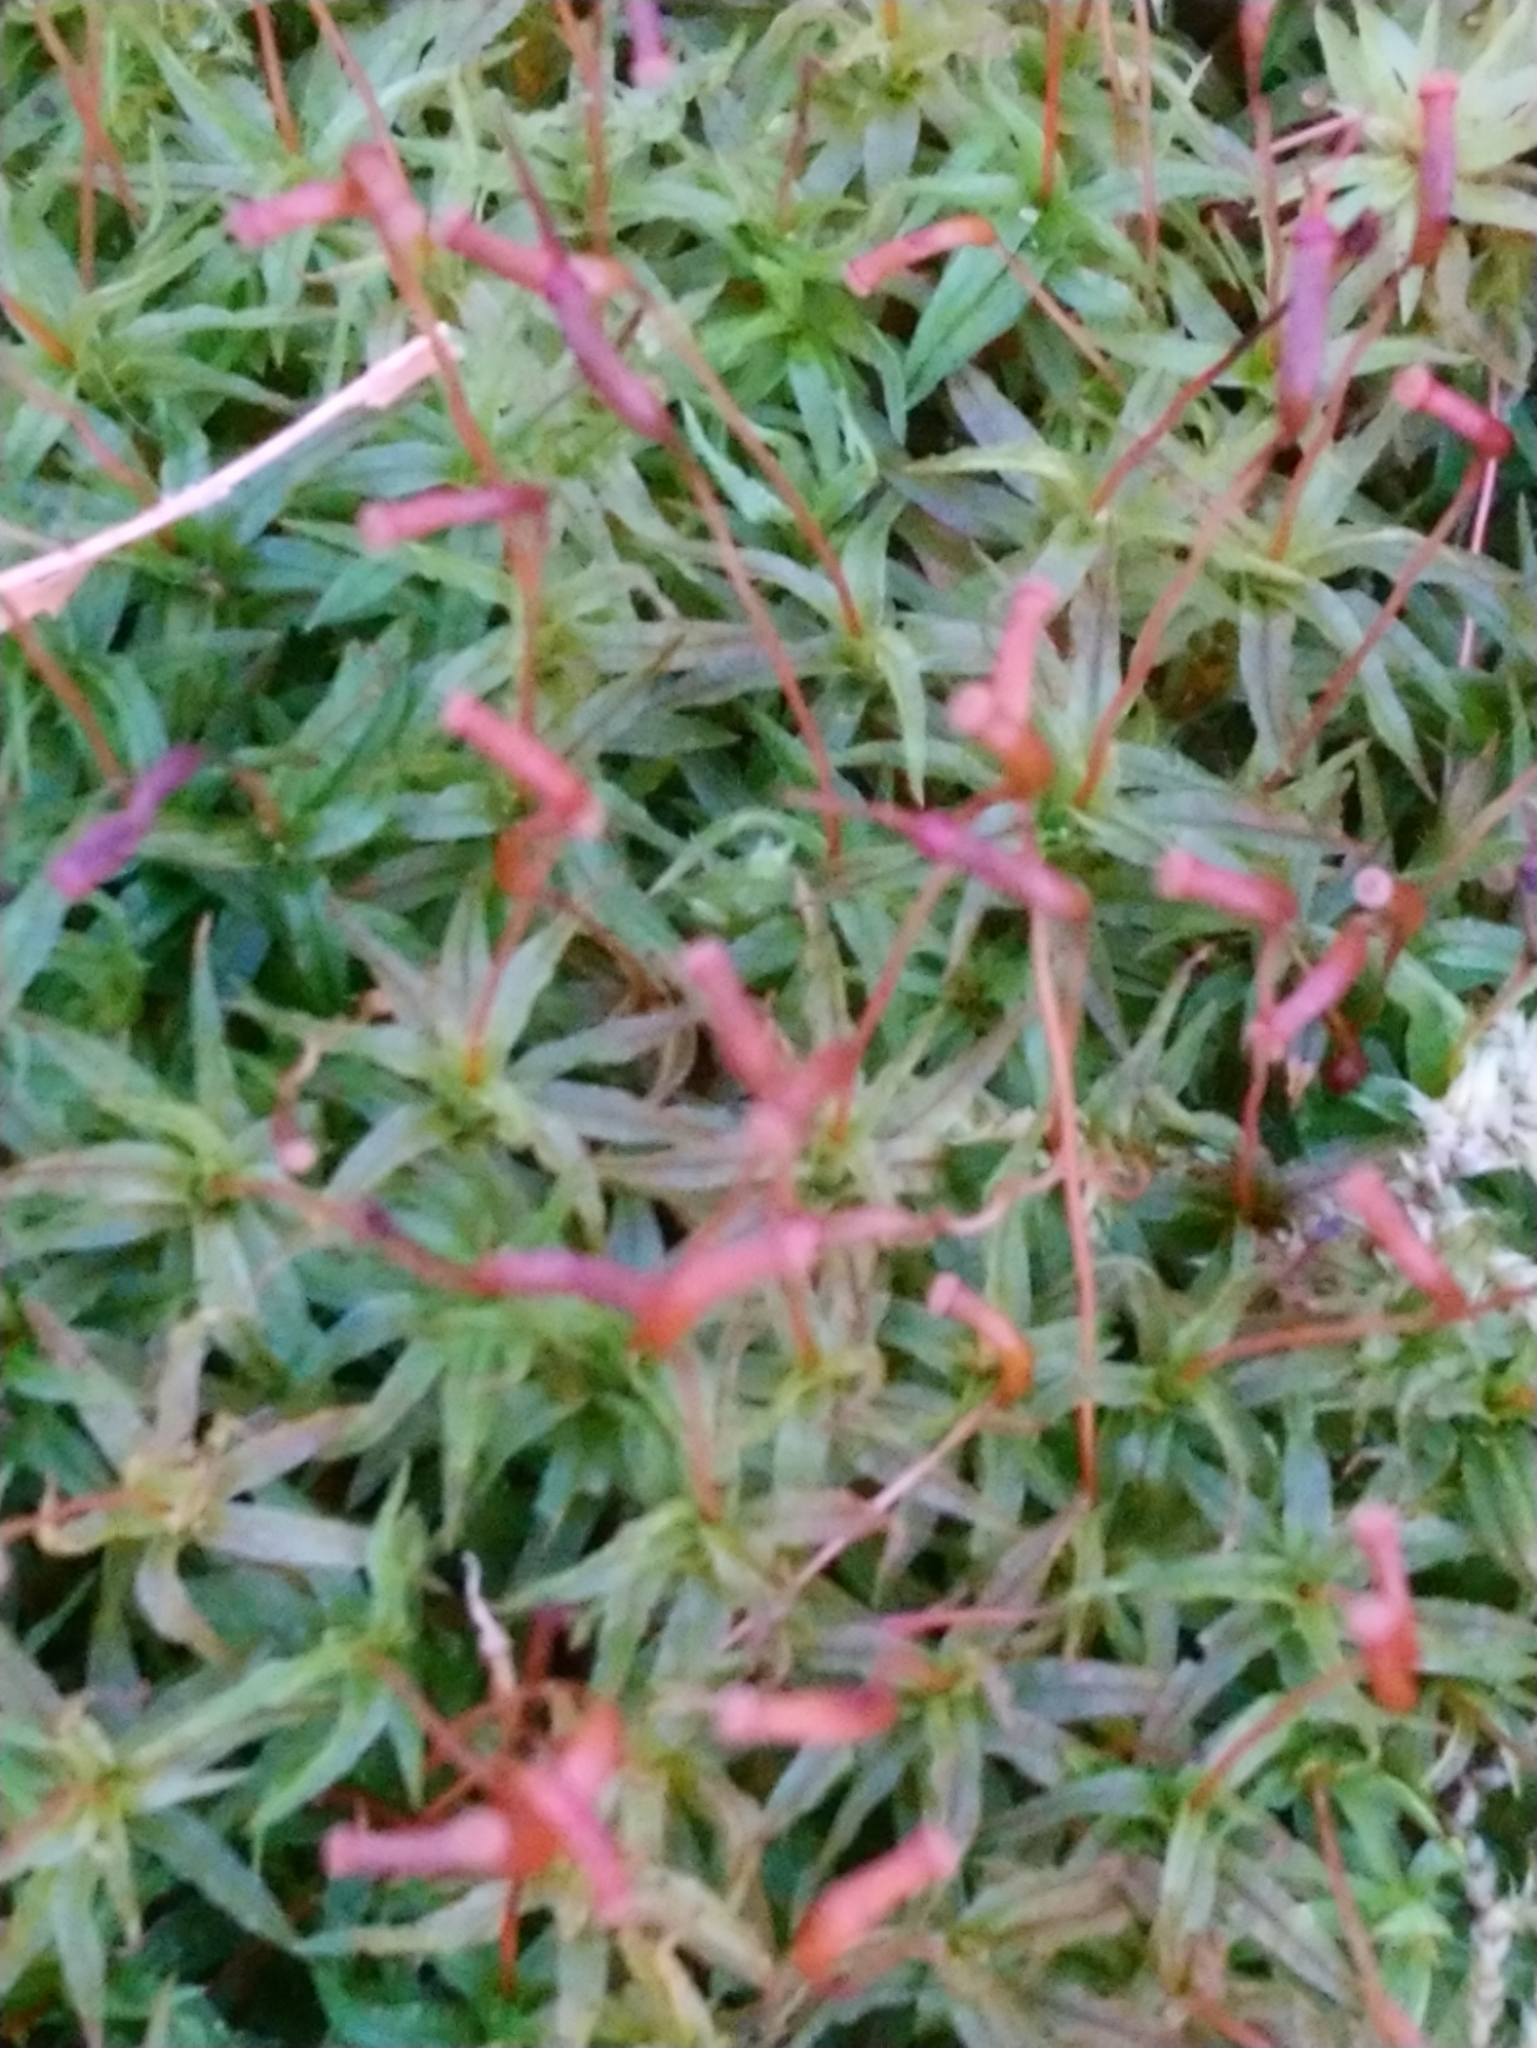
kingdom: Plantae
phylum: Bryophyta
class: Polytrichopsida
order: Polytrichales
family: Polytrichaceae
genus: Atrichum
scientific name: Atrichum undulatum
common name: Common smoothcap
